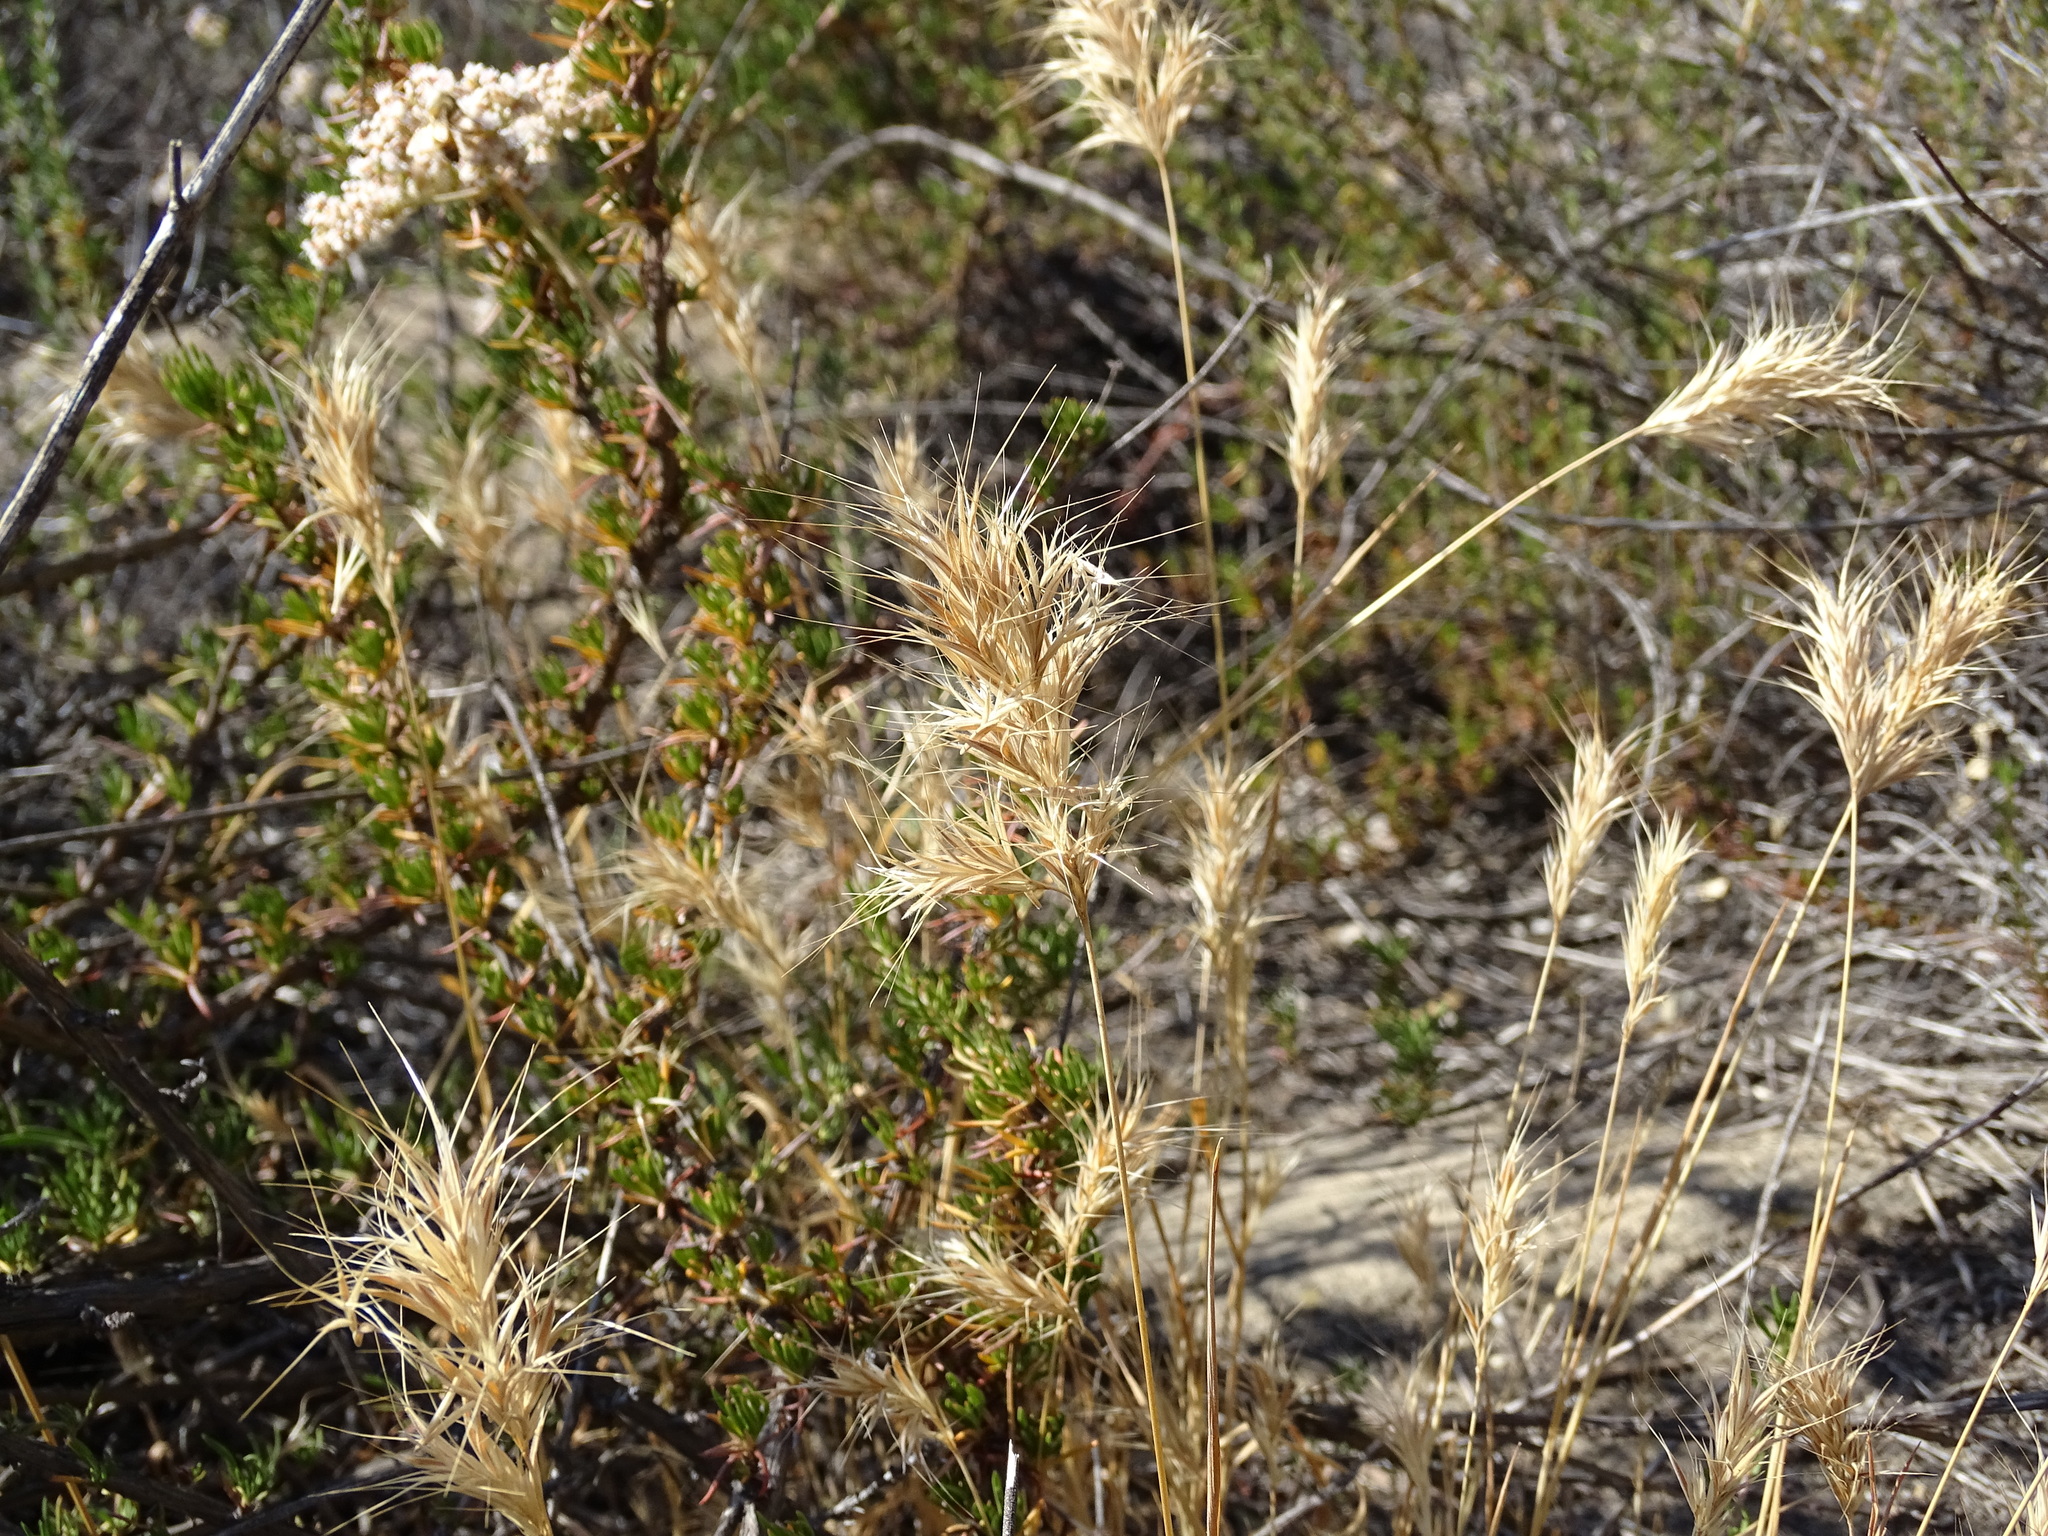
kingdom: Plantae
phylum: Tracheophyta
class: Liliopsida
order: Poales
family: Poaceae
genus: Bromus
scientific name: Bromus madritensis
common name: Compact brome
